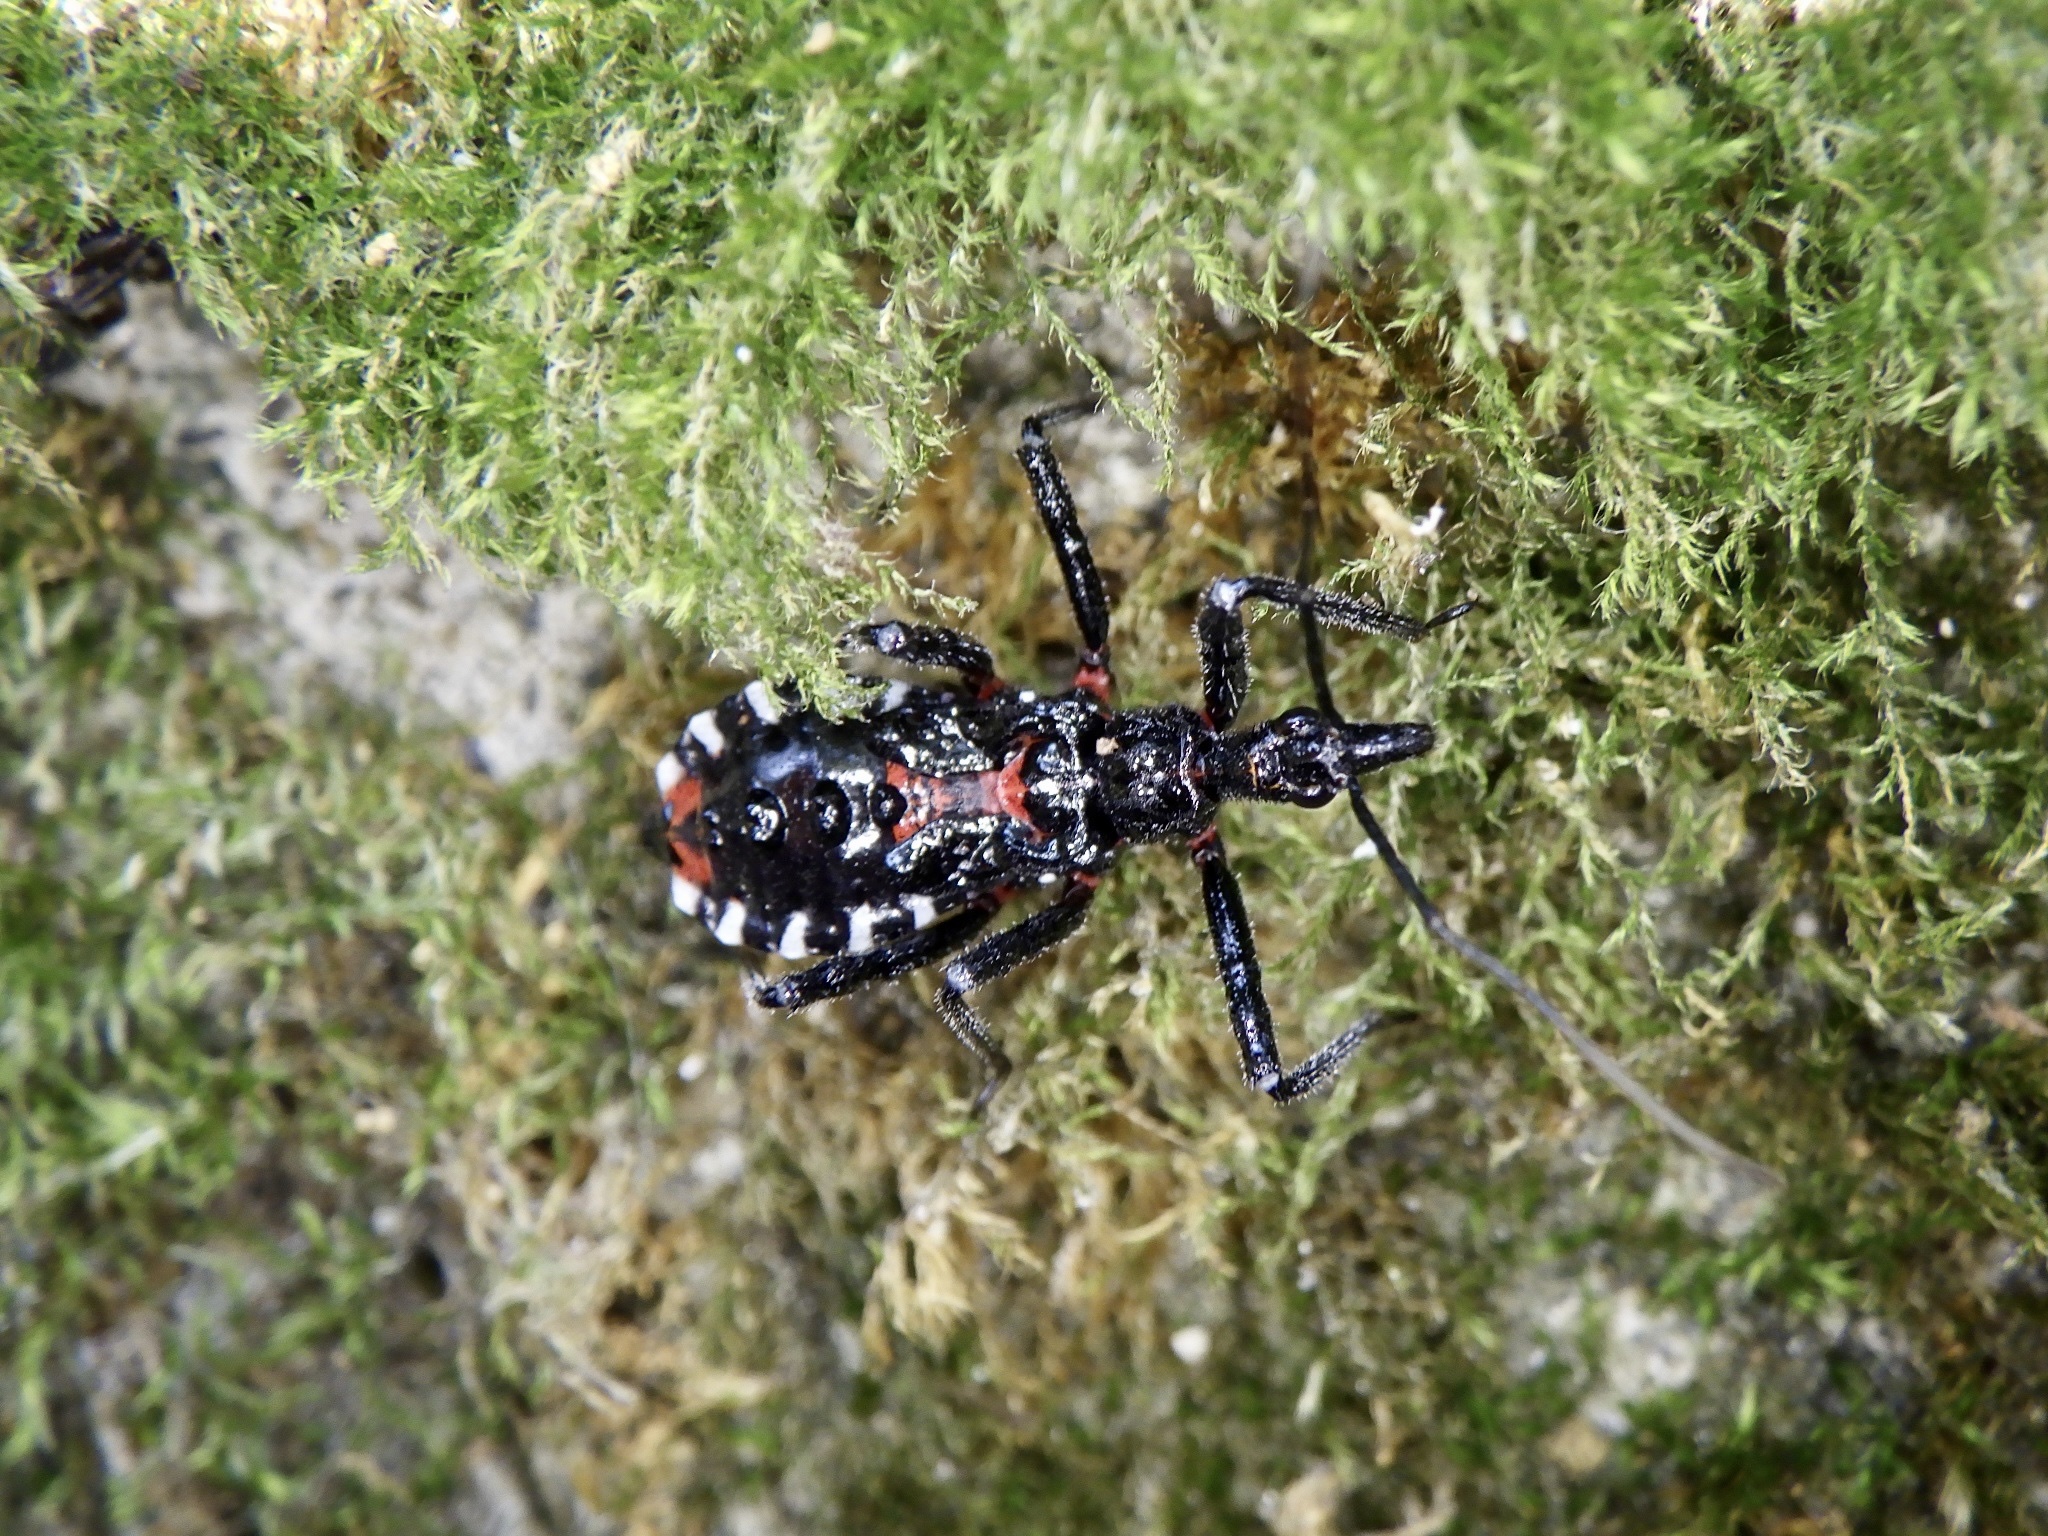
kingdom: Animalia
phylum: Arthropoda
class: Insecta
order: Hemiptera
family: Reduviidae
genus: Agriosphodrus
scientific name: Agriosphodrus dohrni
